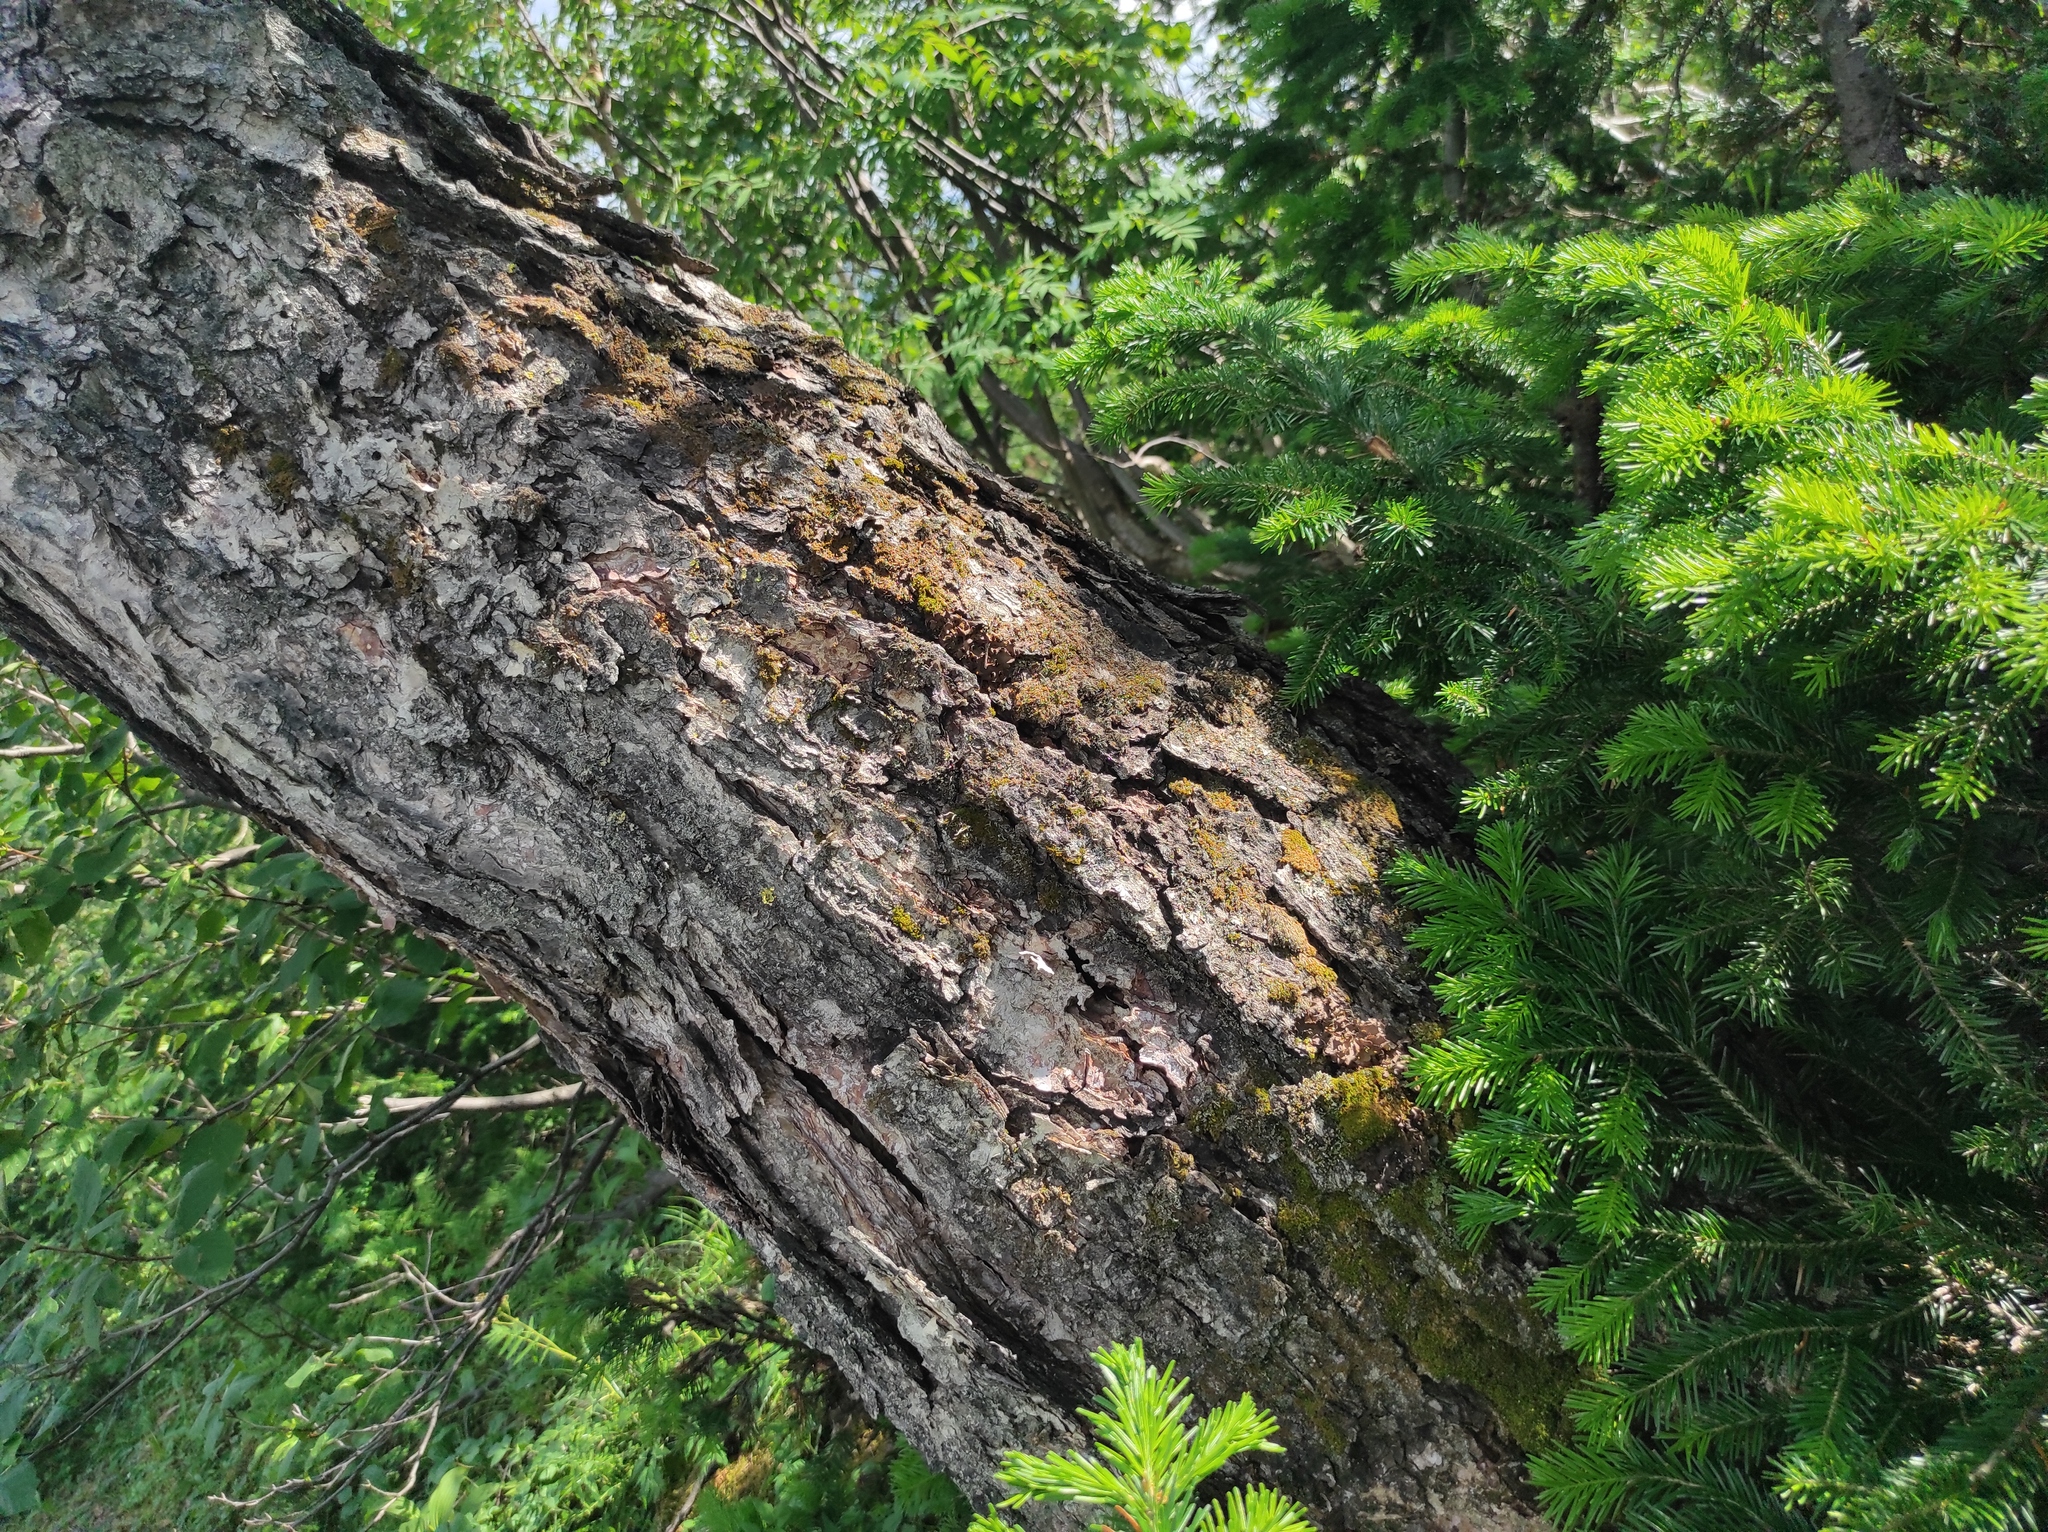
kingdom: Plantae
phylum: Tracheophyta
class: Pinopsida
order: Pinales
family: Pinaceae
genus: Abies
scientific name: Abies sibirica
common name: Siberian fir
